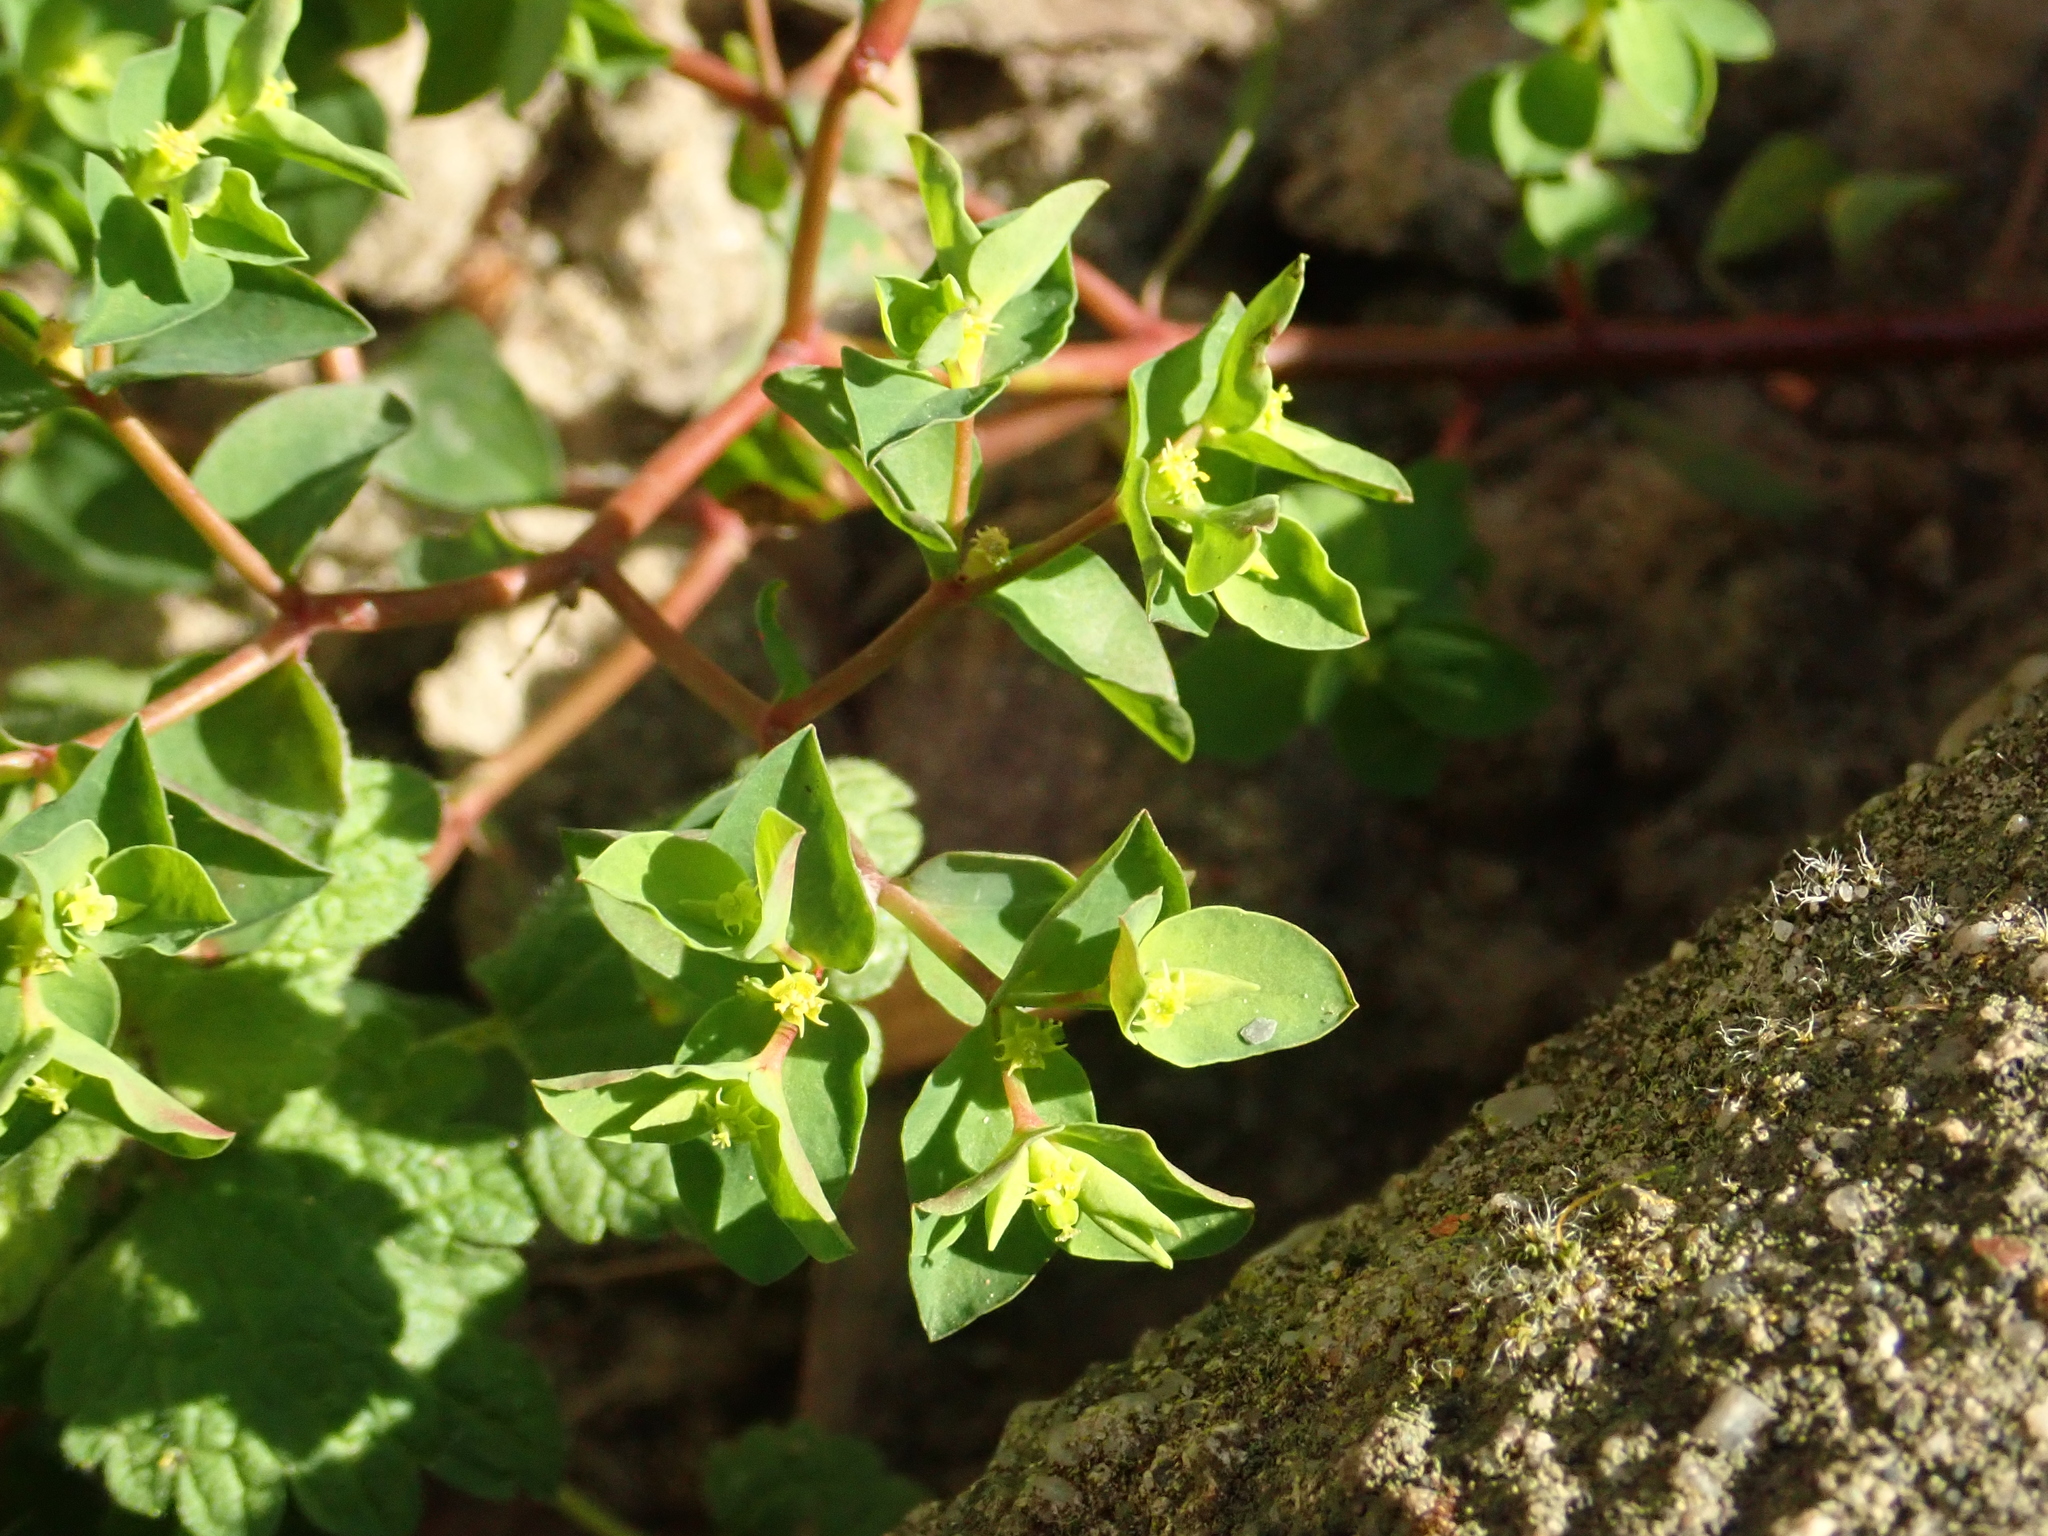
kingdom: Plantae
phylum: Tracheophyta
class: Magnoliopsida
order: Malpighiales
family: Euphorbiaceae
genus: Euphorbia
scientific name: Euphorbia peplus
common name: Petty spurge
